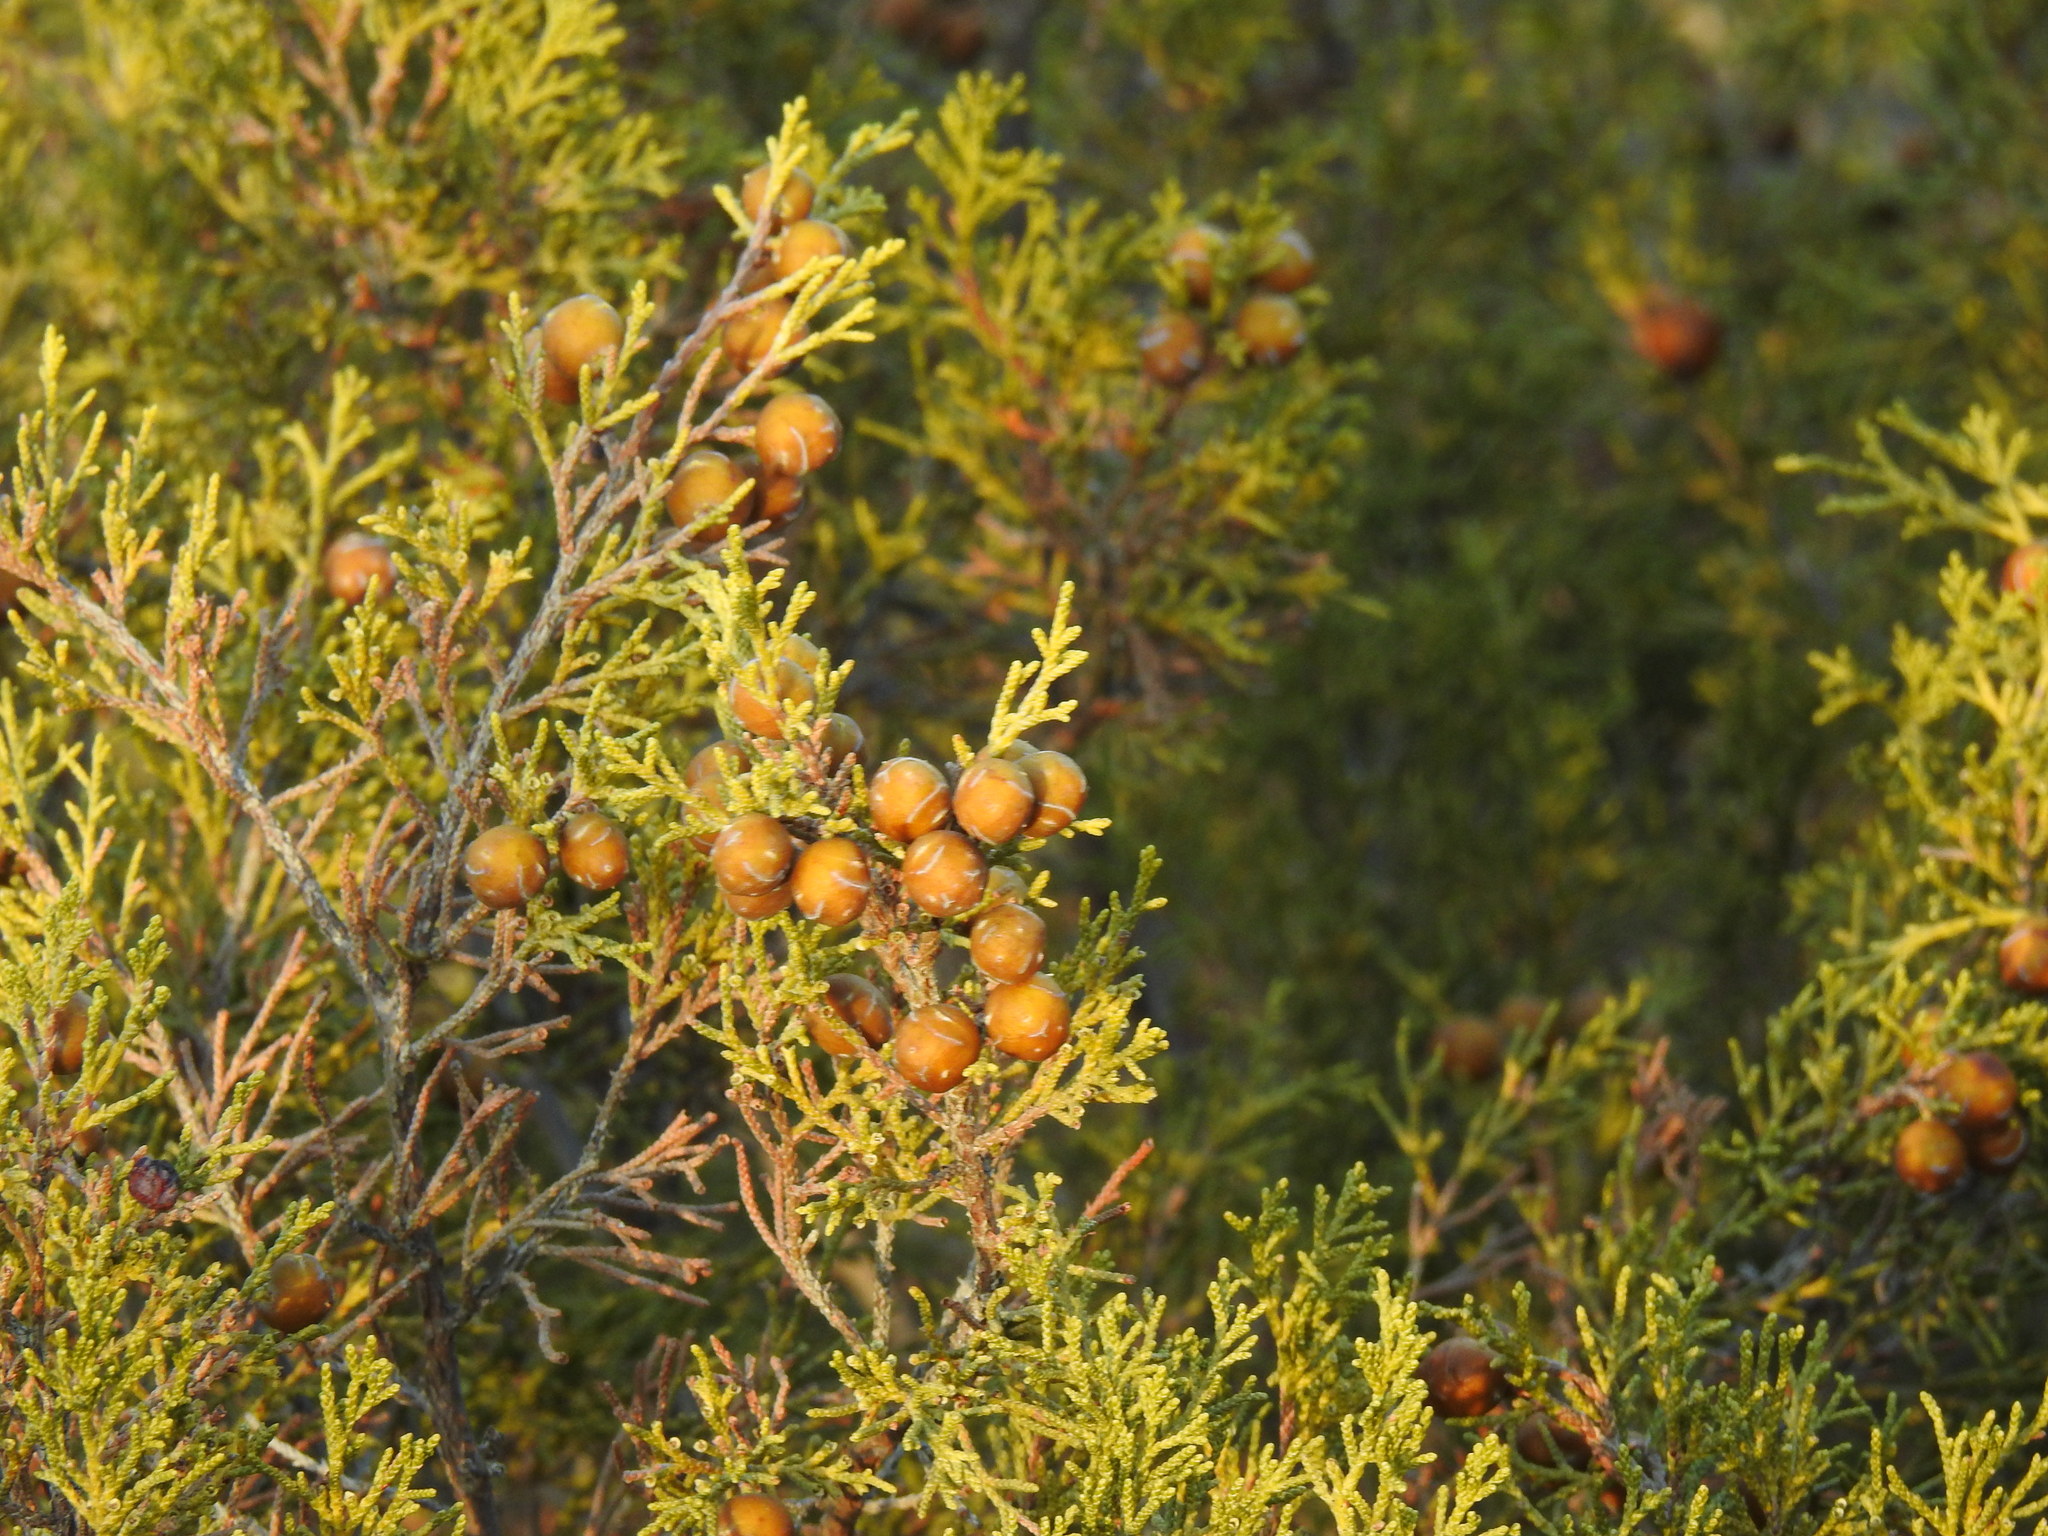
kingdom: Plantae
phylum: Tracheophyta
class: Pinopsida
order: Pinales
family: Cupressaceae
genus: Juniperus
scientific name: Juniperus phoenicea
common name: Phoenician juniper
